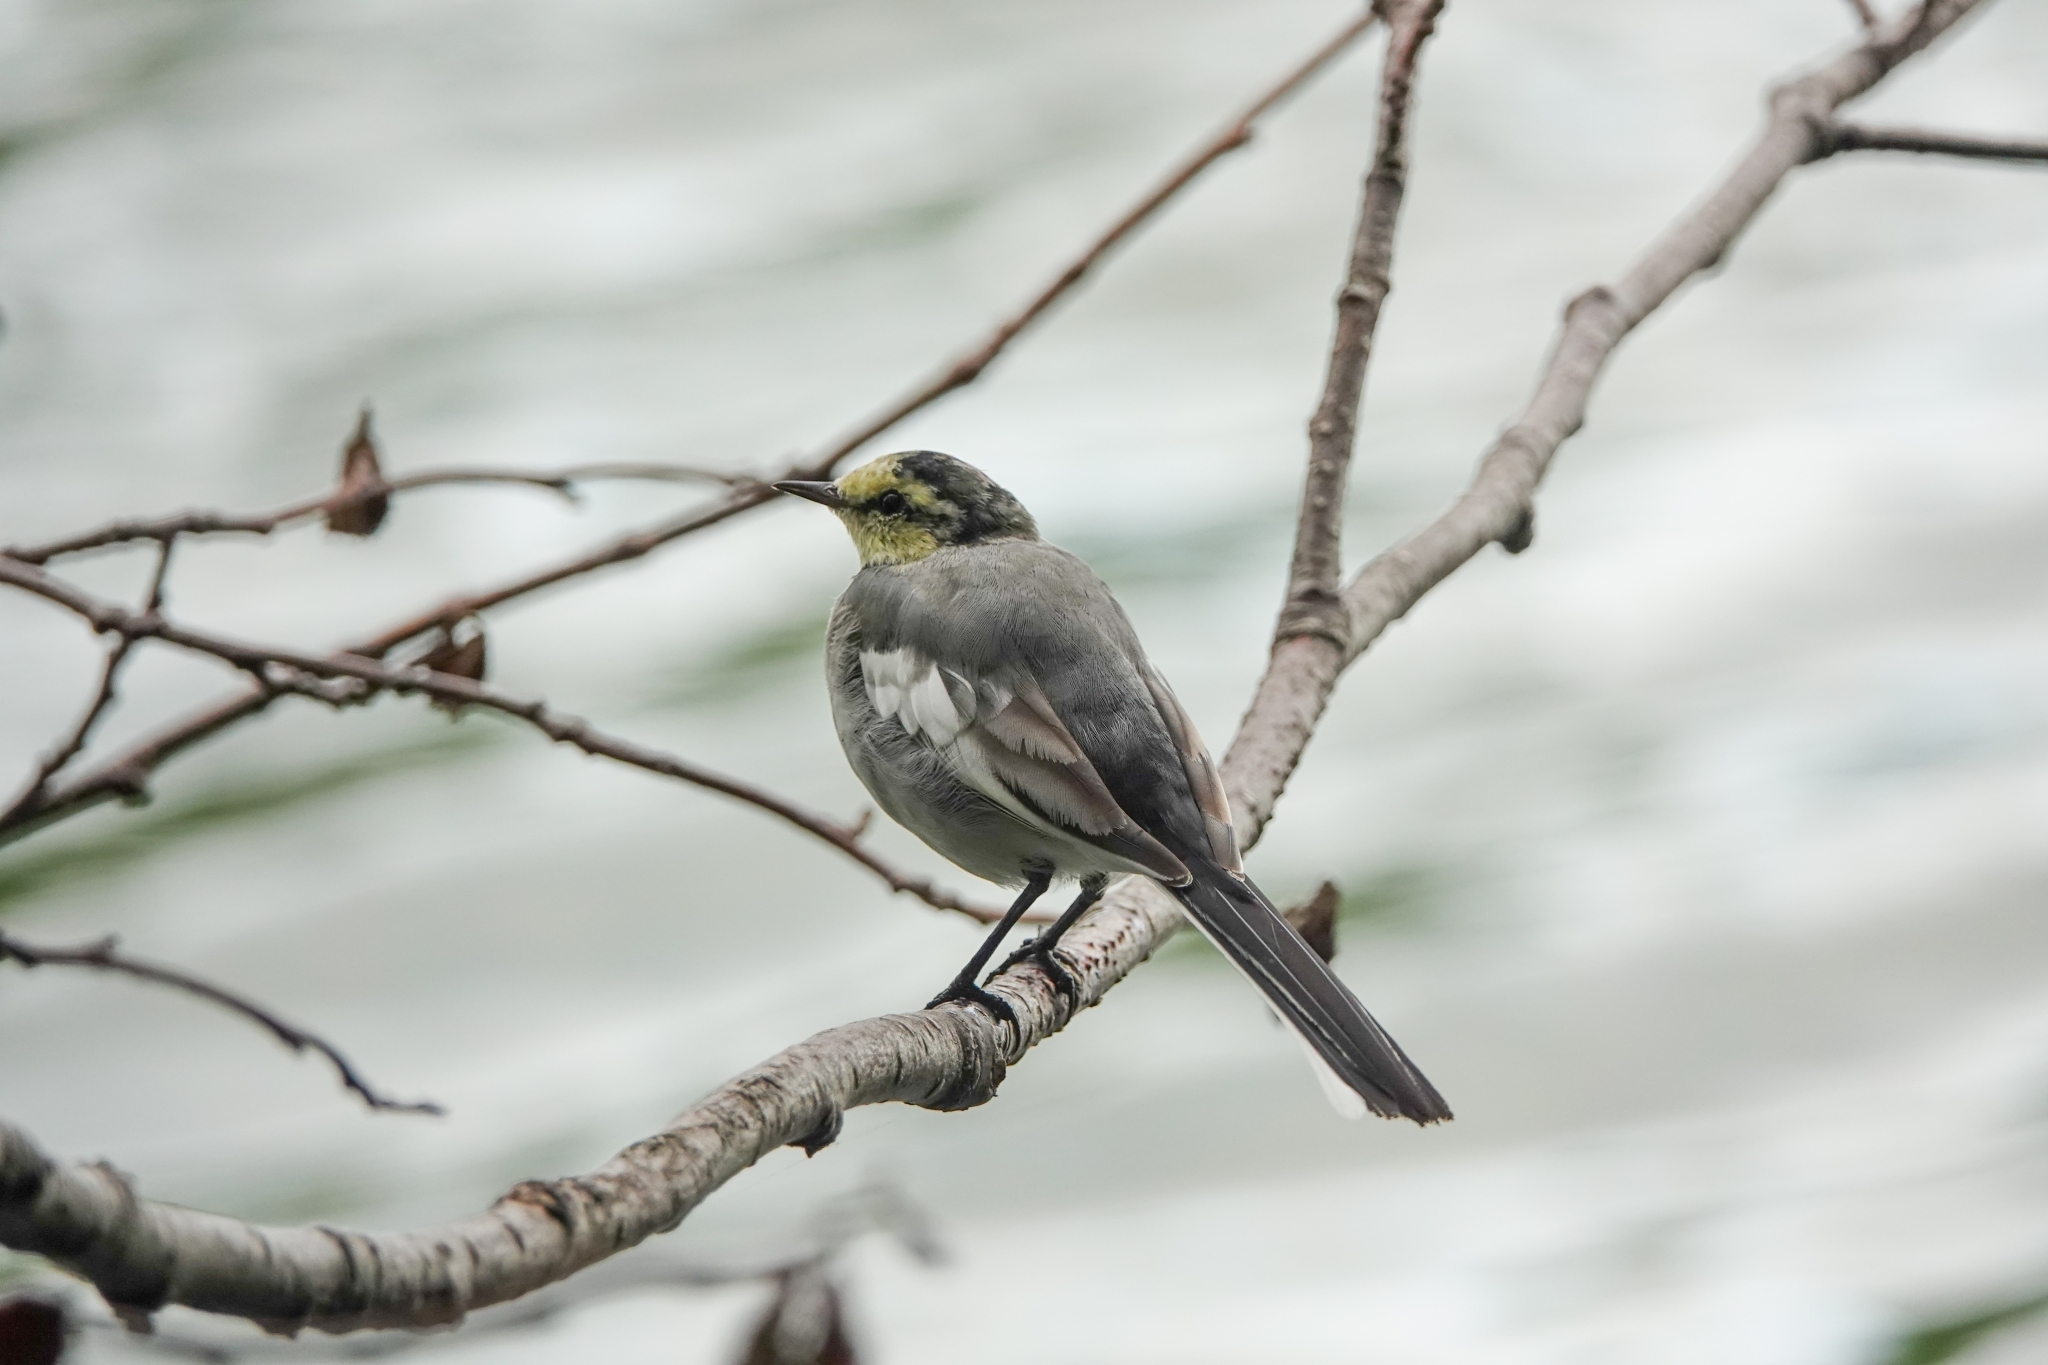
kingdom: Animalia
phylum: Chordata
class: Aves
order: Passeriformes
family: Motacillidae
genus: Motacilla
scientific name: Motacilla alba
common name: White wagtail
